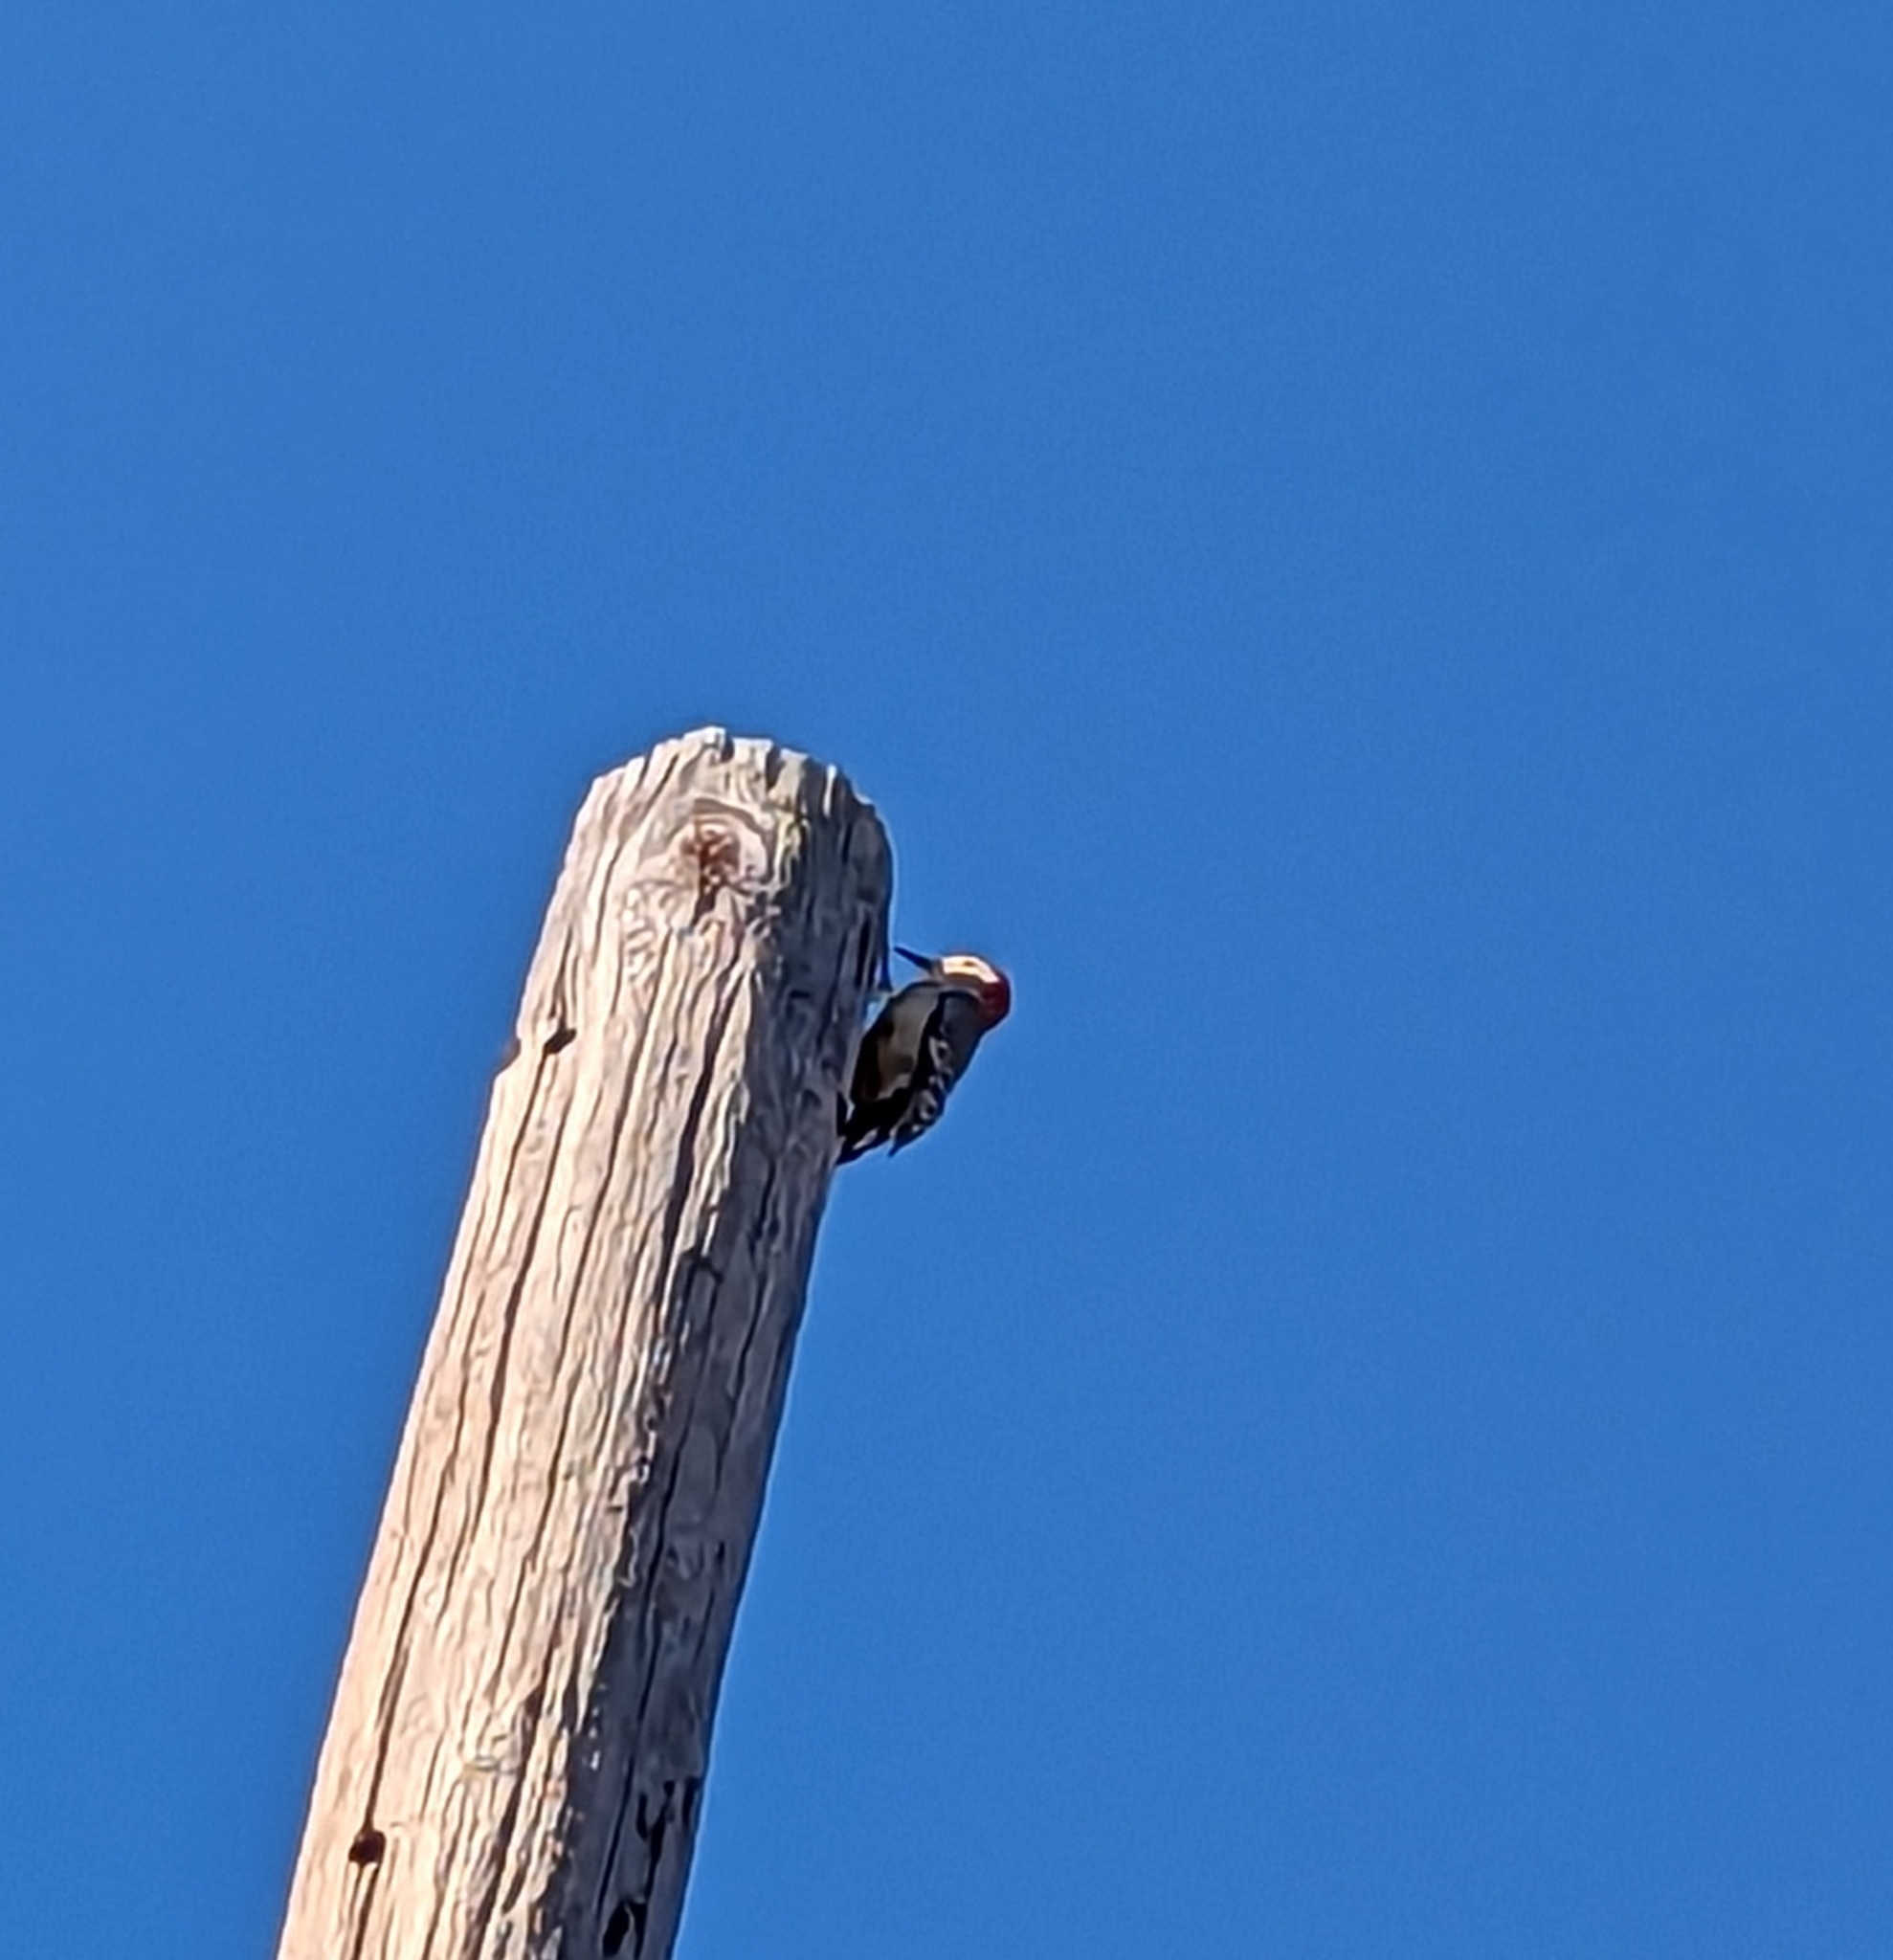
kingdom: Animalia
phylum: Chordata
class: Aves
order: Piciformes
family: Picidae
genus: Melanerpes
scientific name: Melanerpes carolinus
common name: Red-bellied woodpecker
